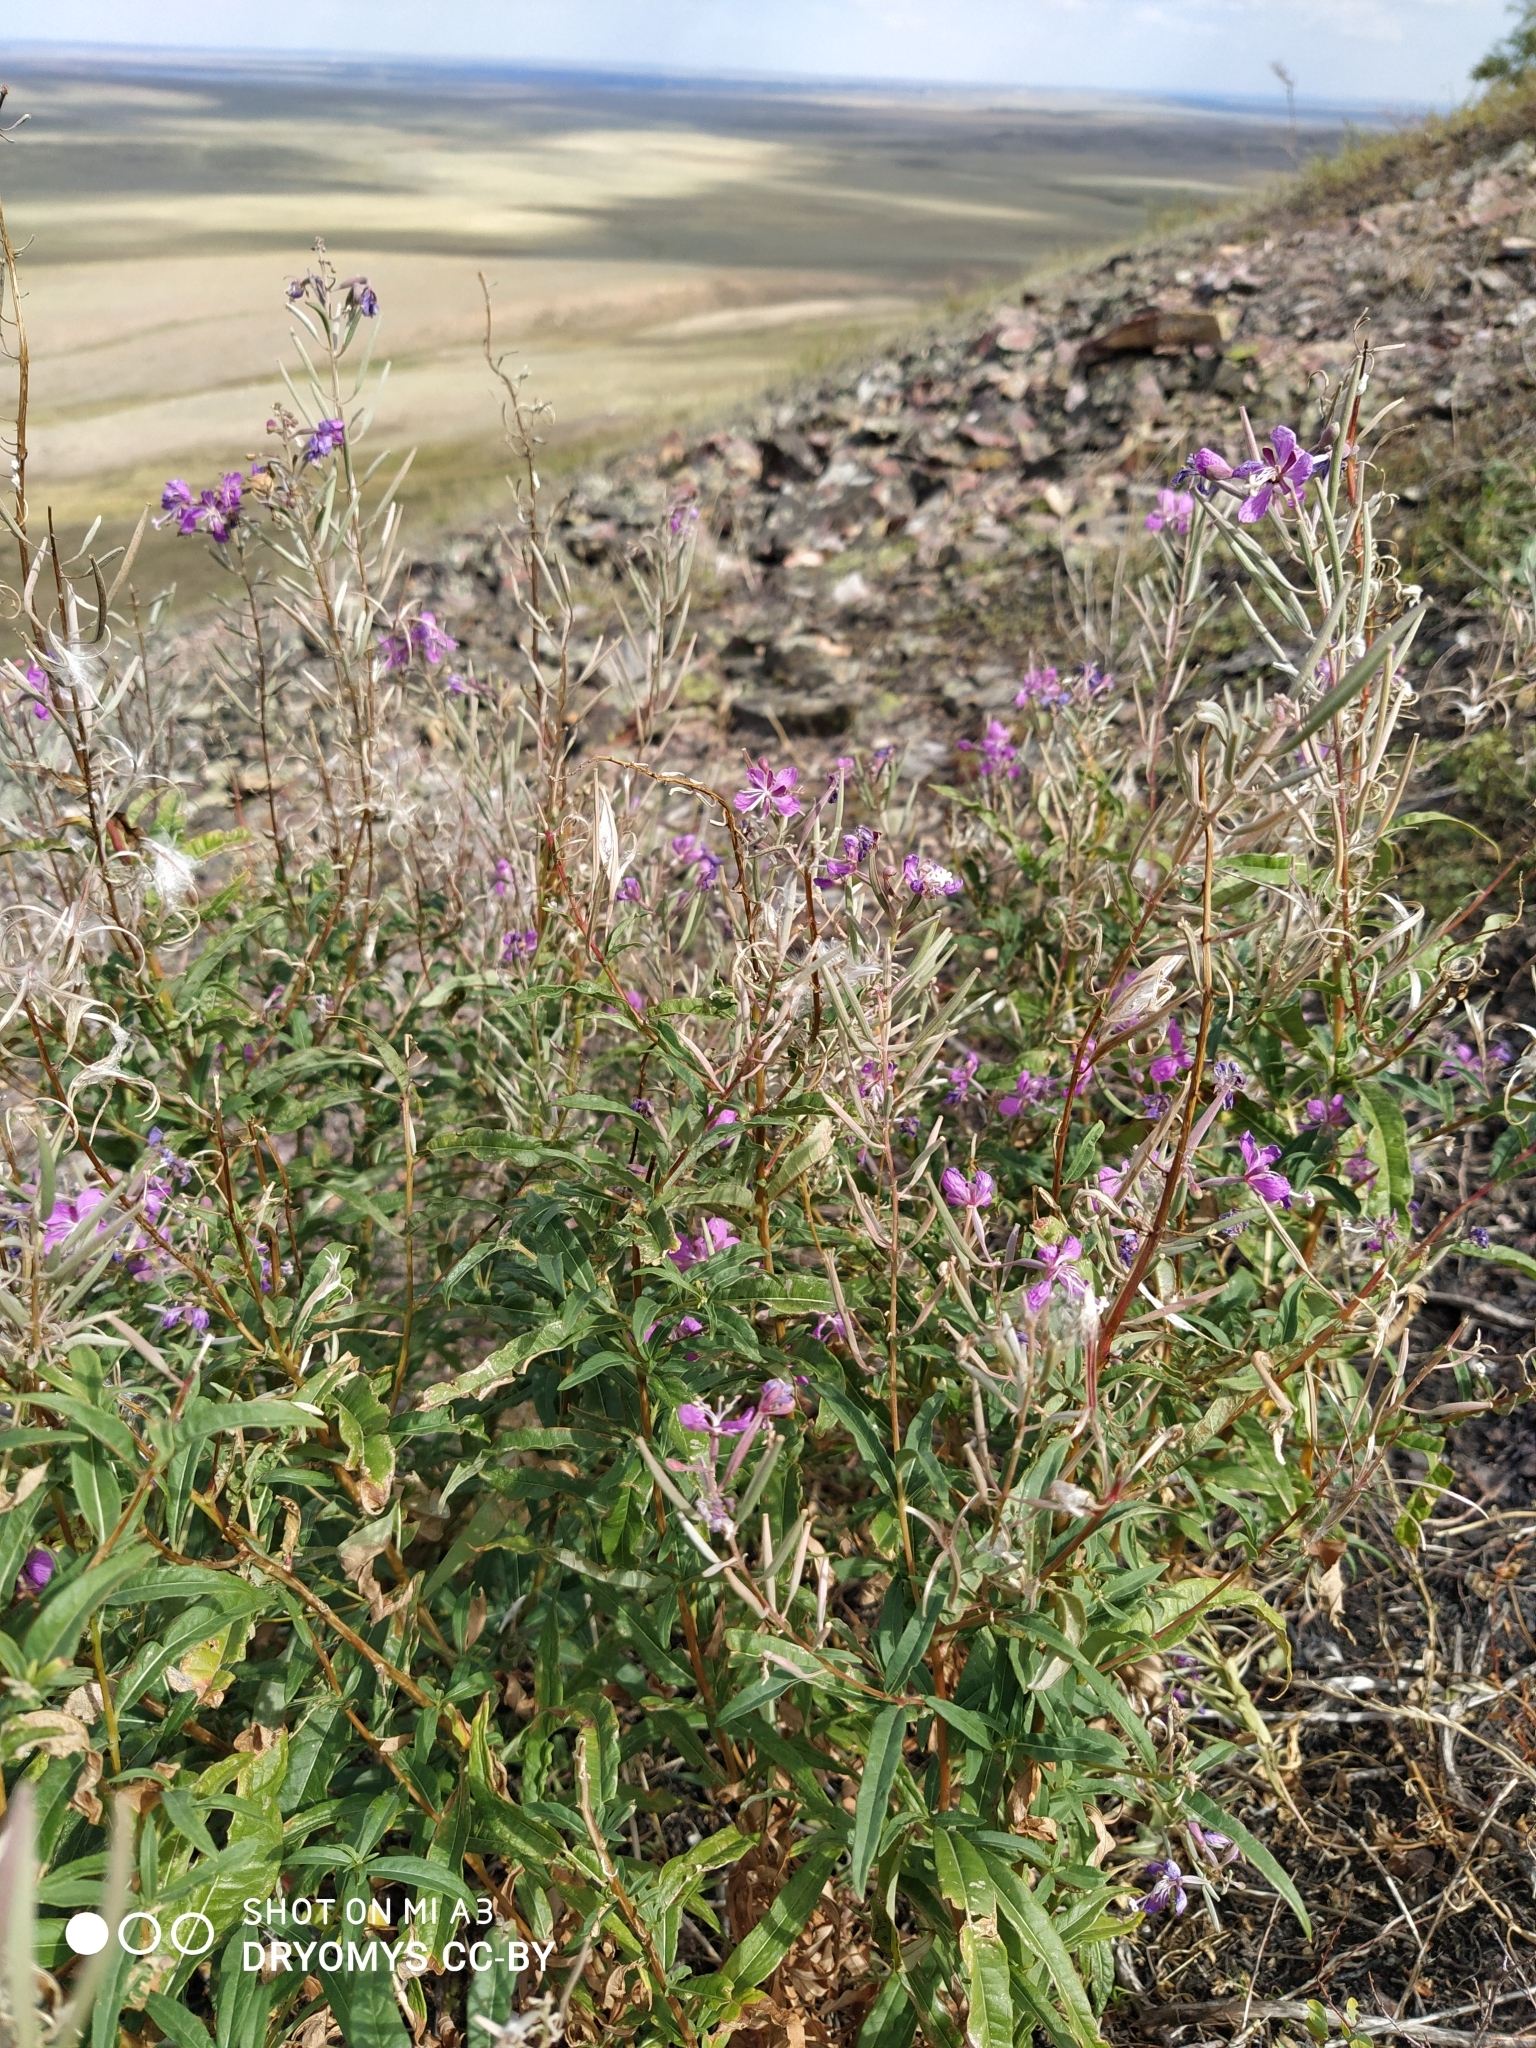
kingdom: Plantae
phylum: Tracheophyta
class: Magnoliopsida
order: Myrtales
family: Onagraceae
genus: Chamaenerion
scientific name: Chamaenerion angustifolium
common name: Fireweed
